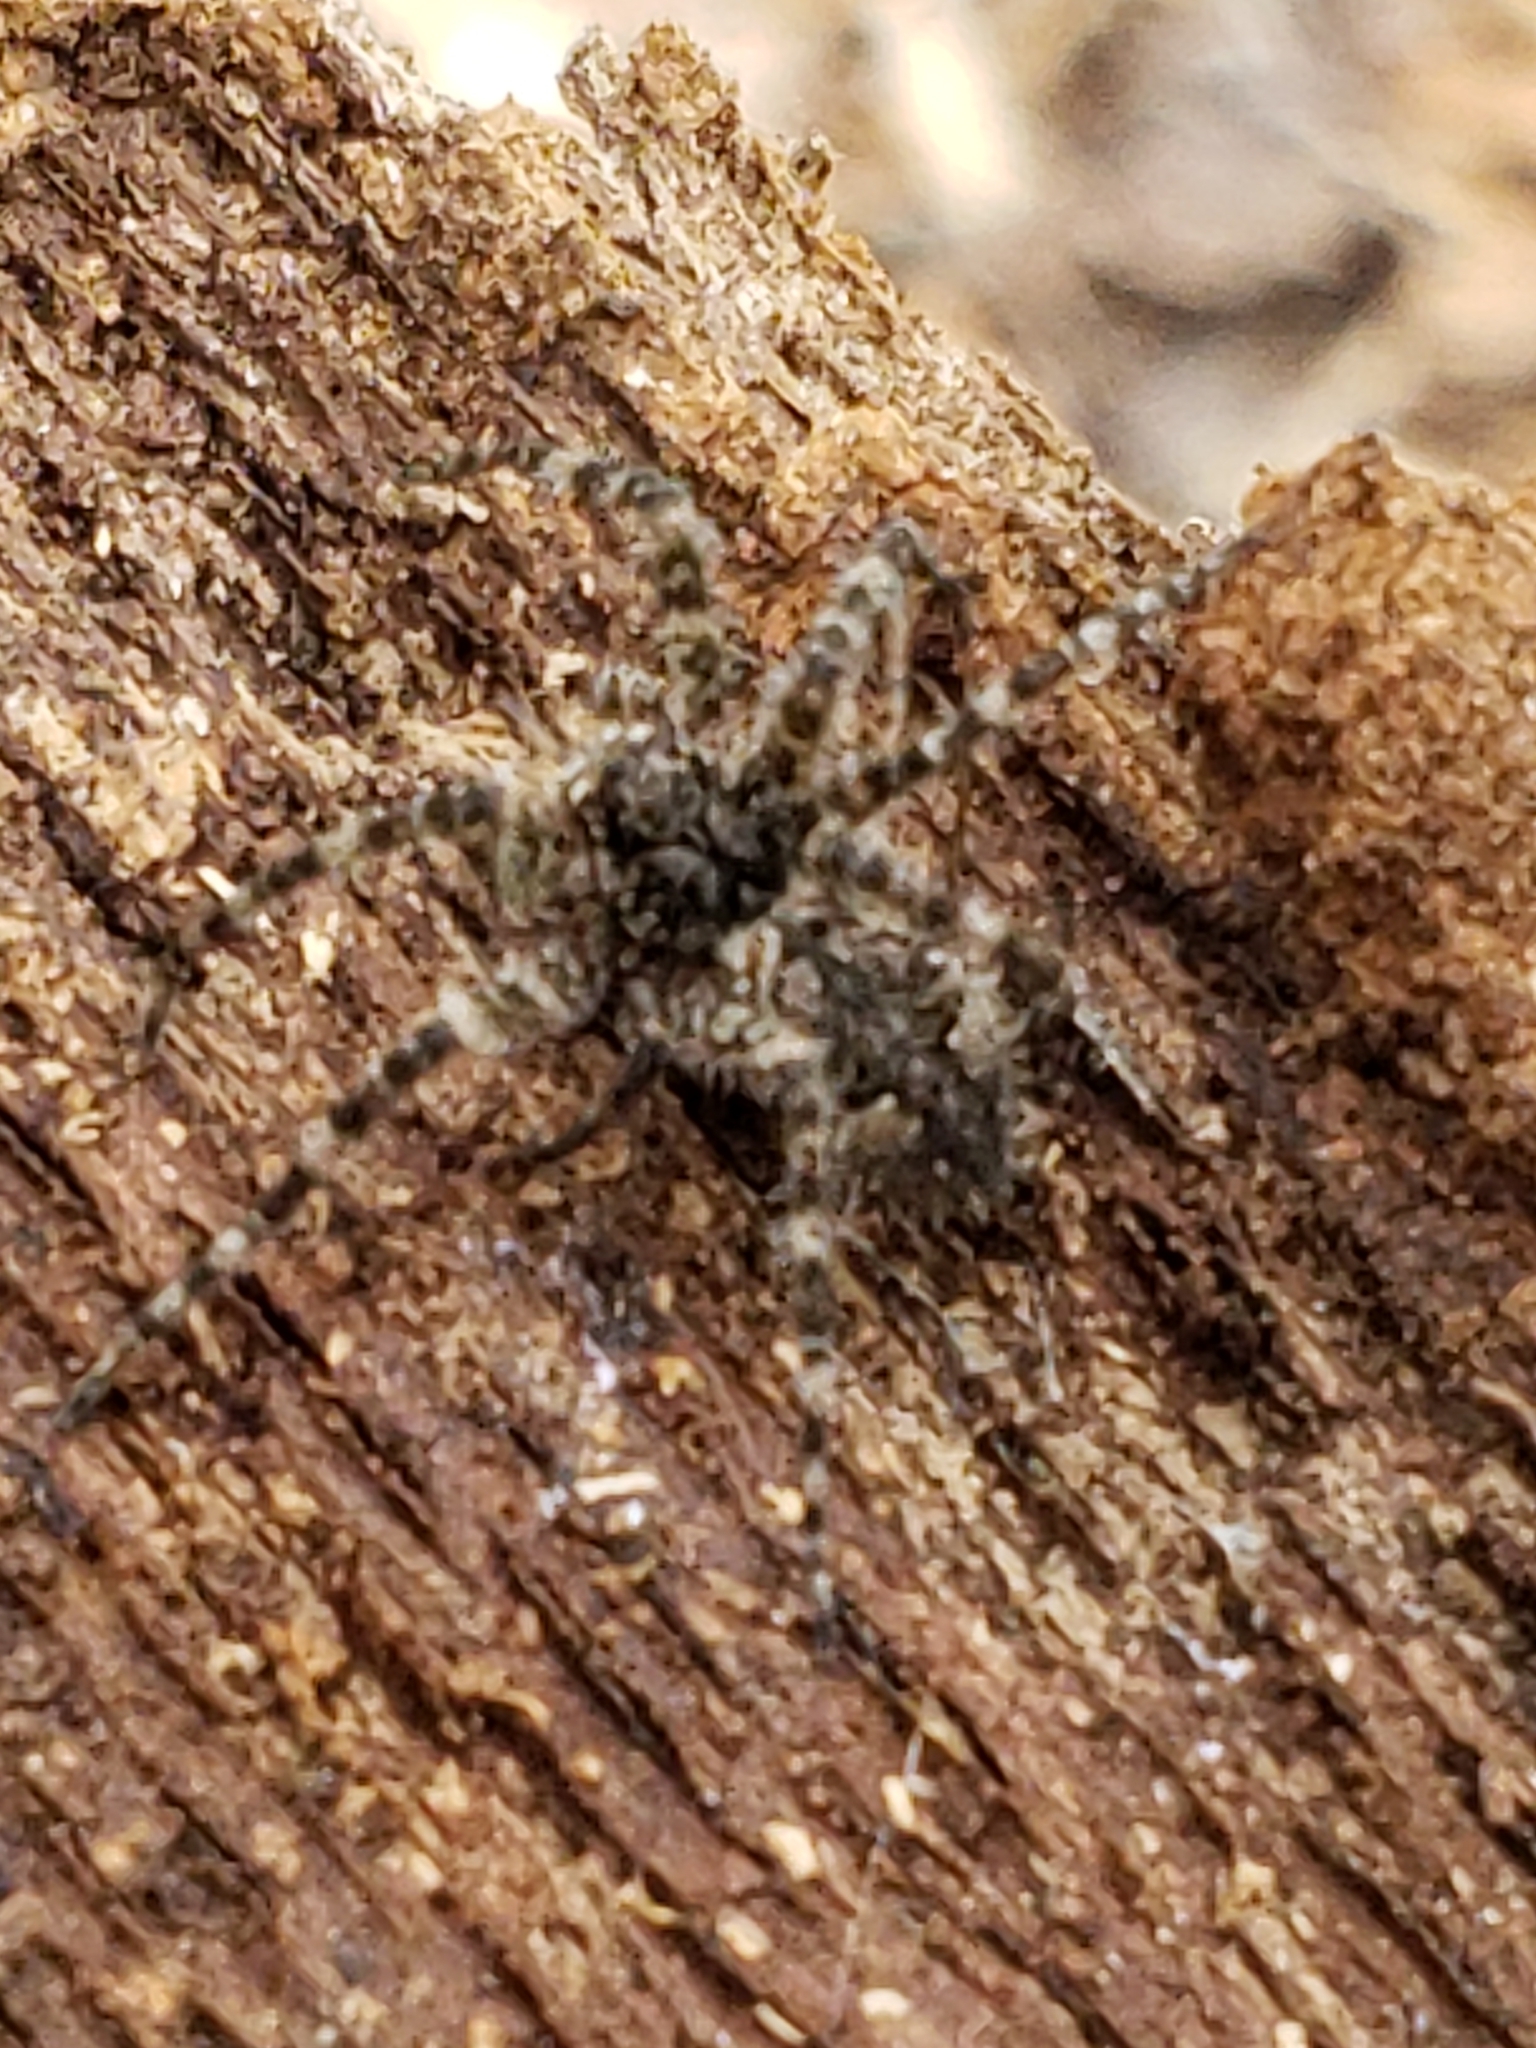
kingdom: Animalia
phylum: Arthropoda
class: Arachnida
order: Araneae
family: Pisauridae
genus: Dolomedes
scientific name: Dolomedes albineus
